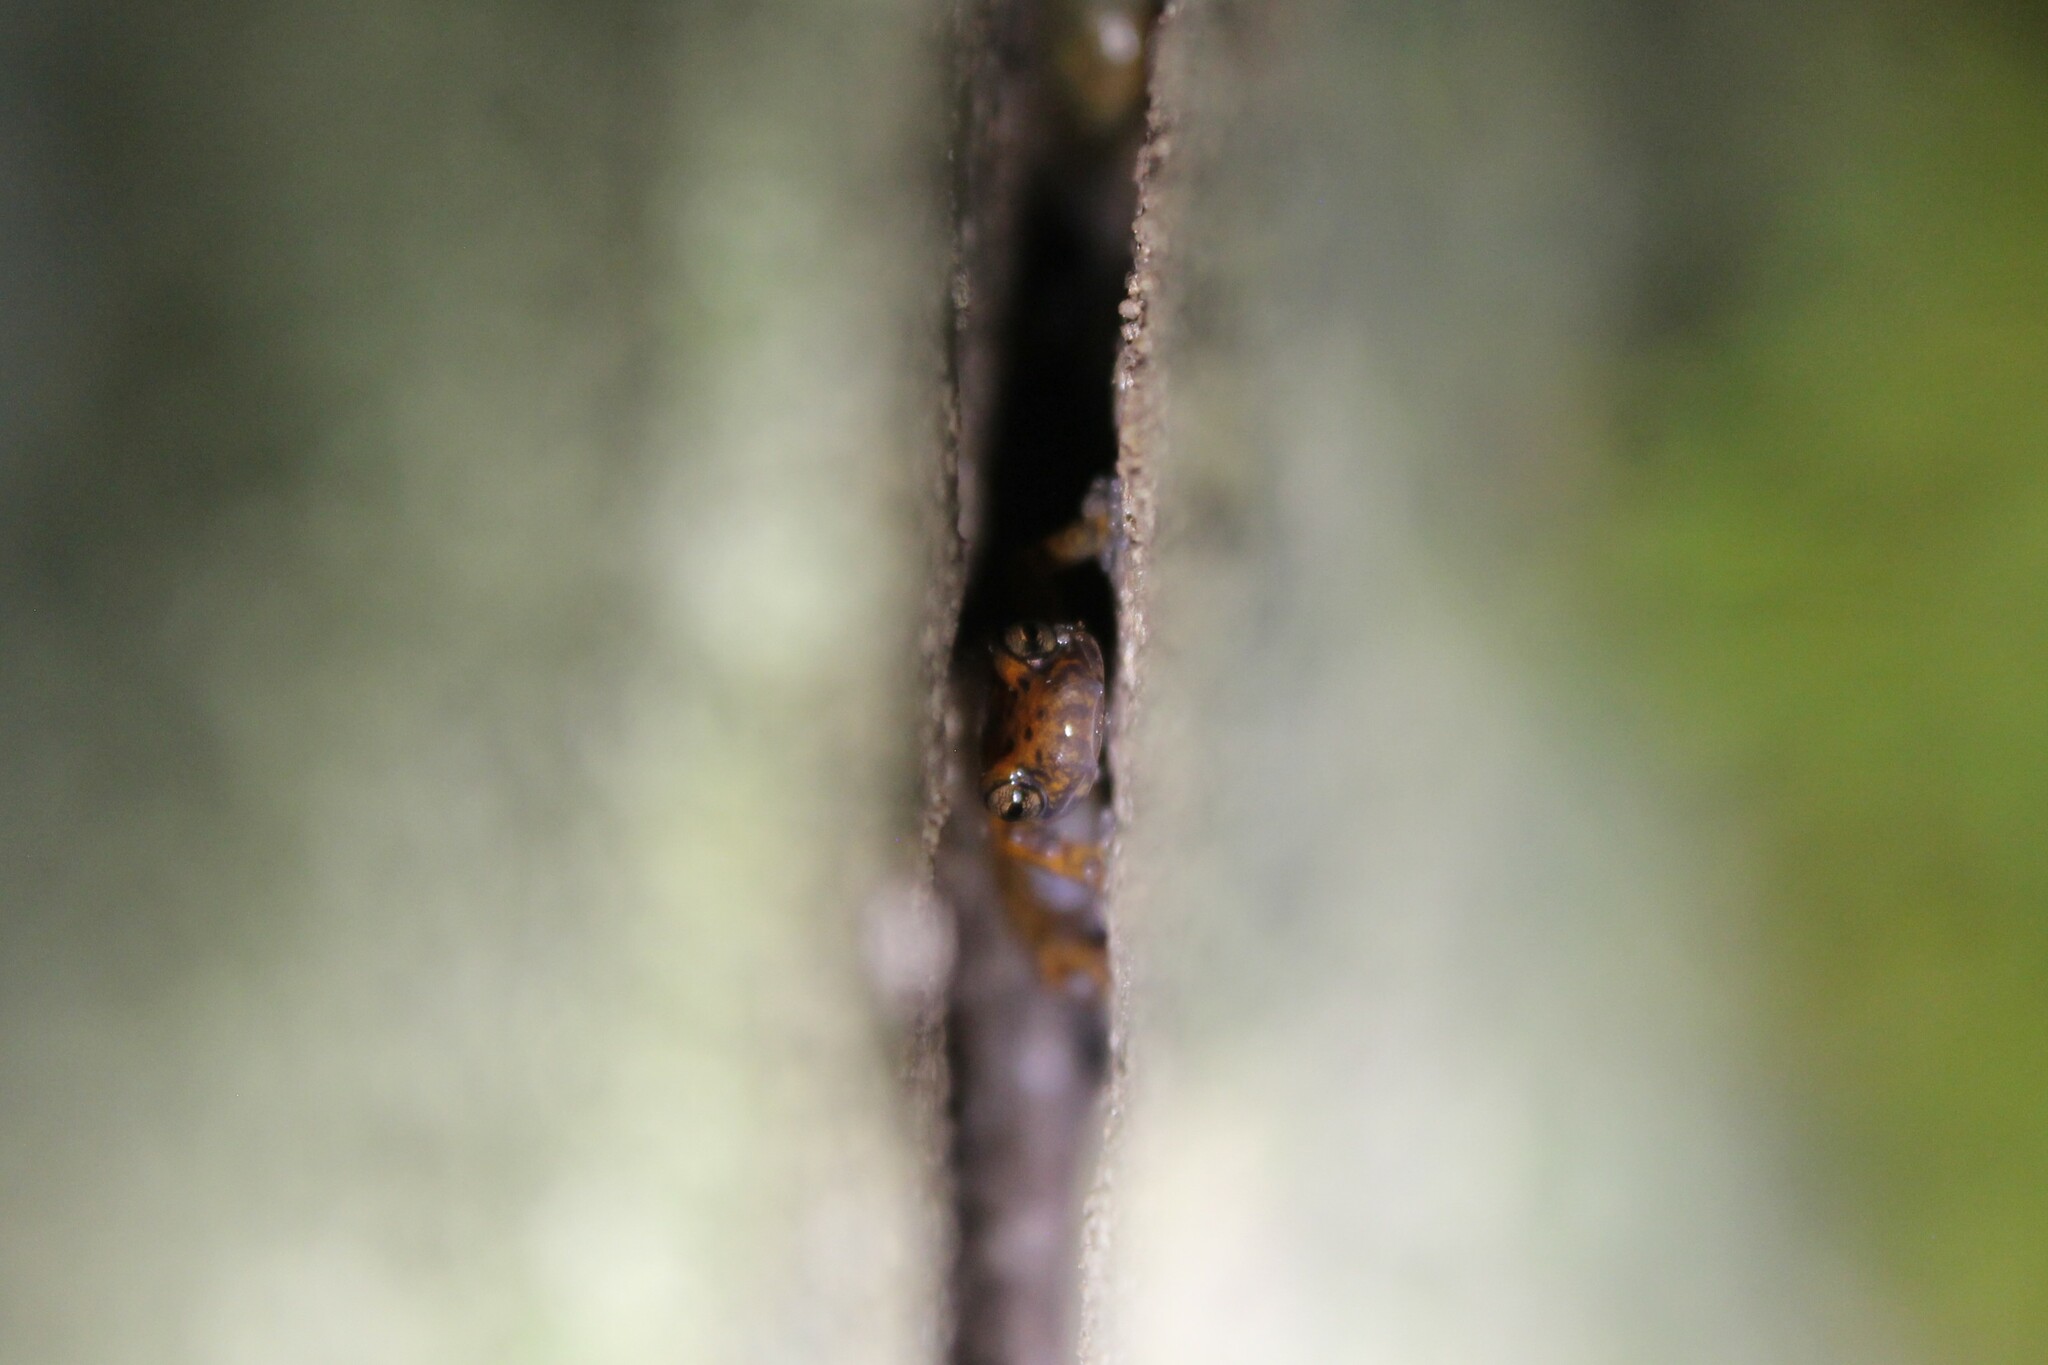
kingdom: Animalia
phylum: Chordata
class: Amphibia
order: Caudata
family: Plethodontidae
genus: Eurycea
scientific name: Eurycea lucifuga
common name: Cave salamander
